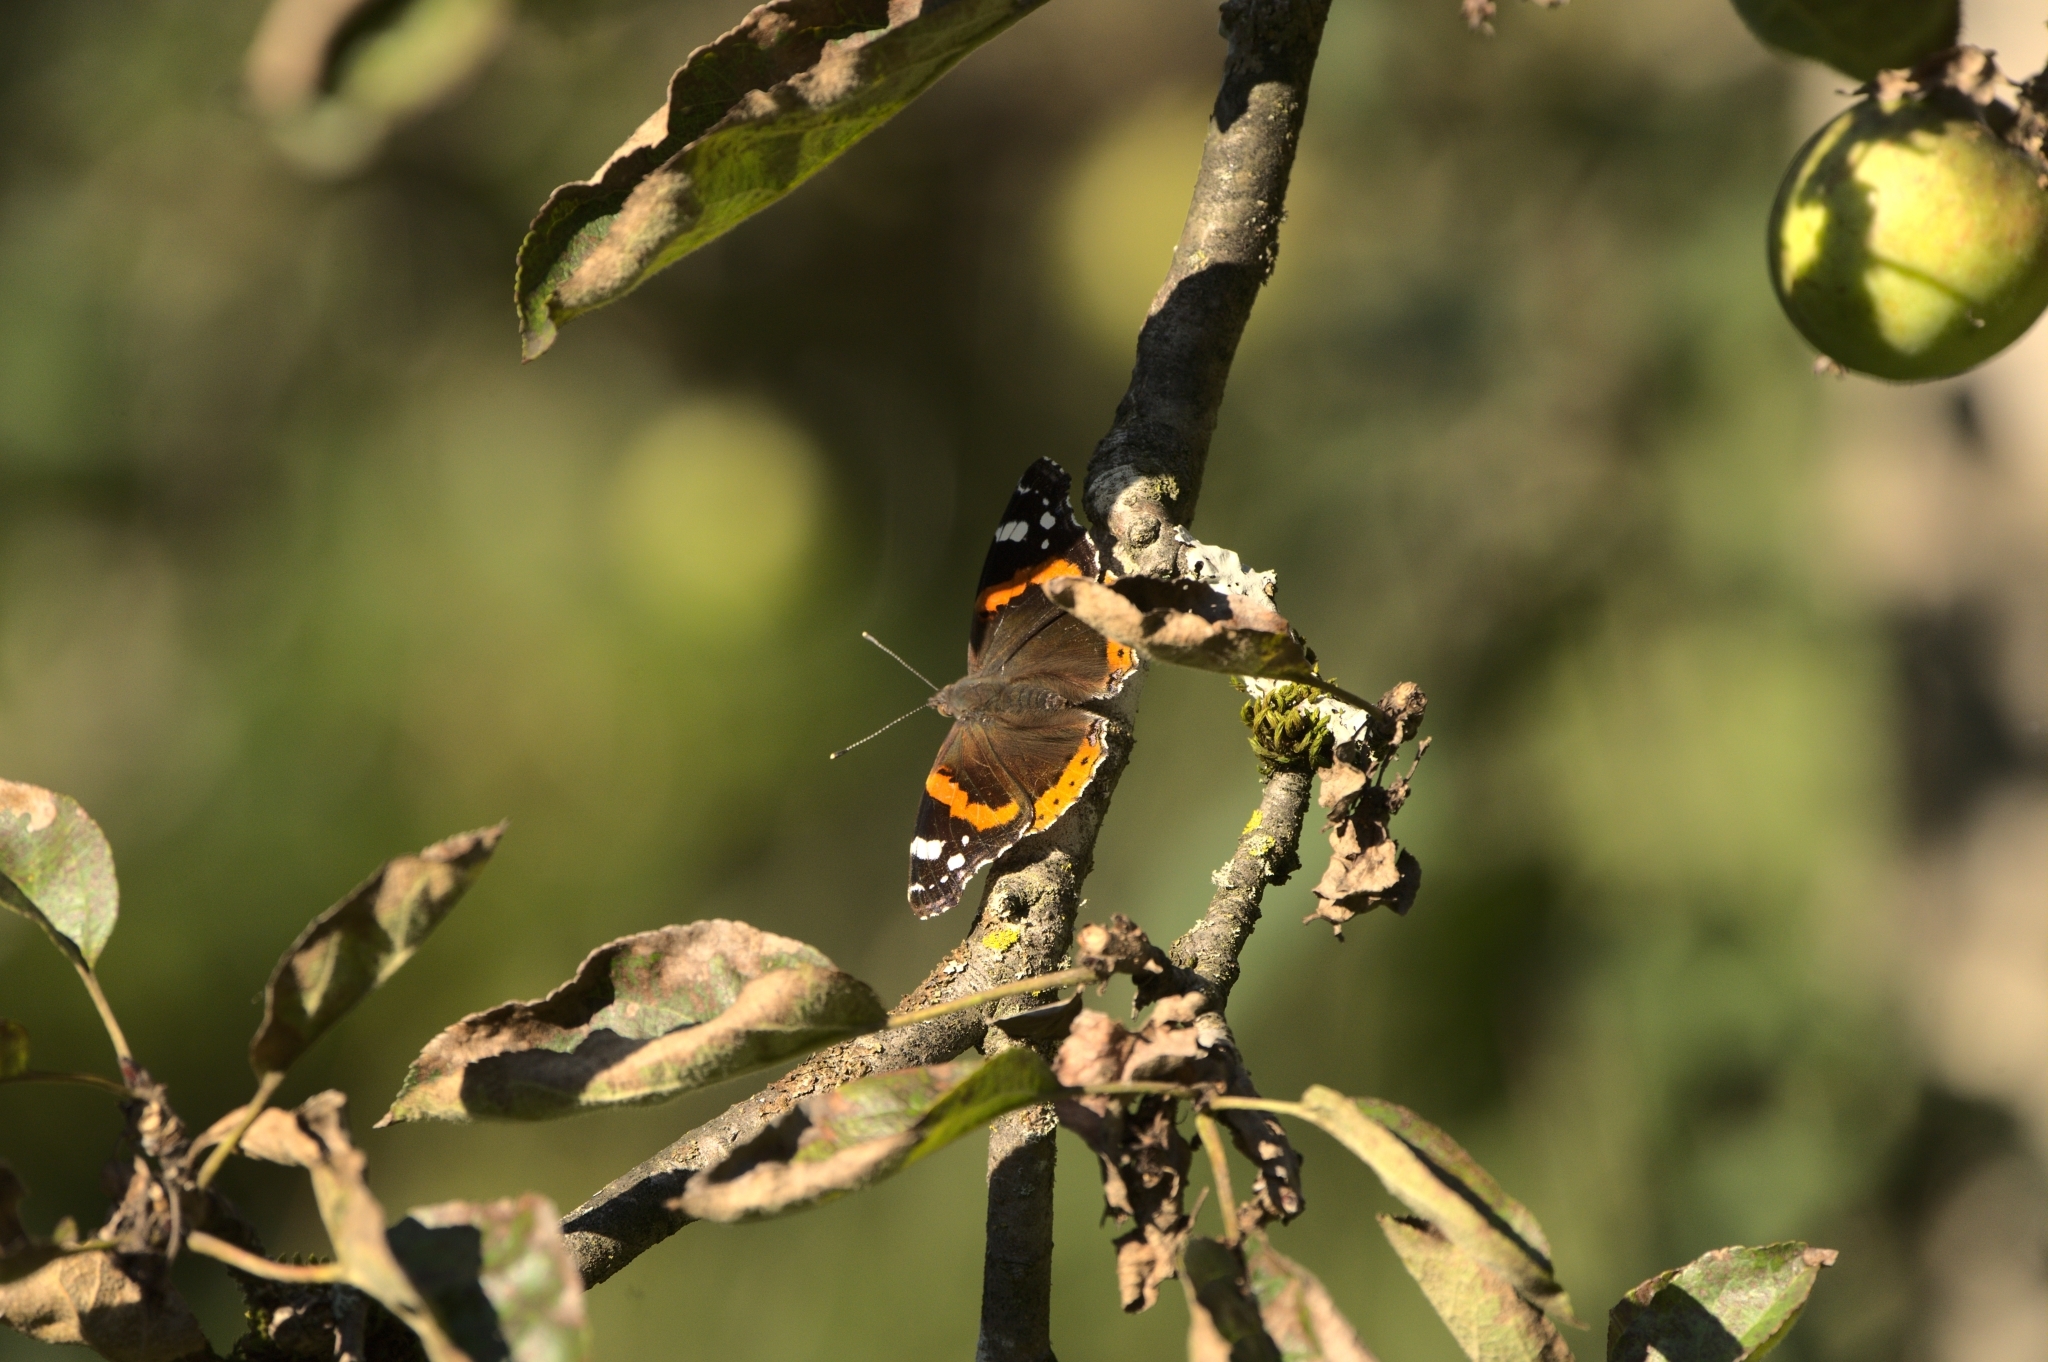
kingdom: Animalia
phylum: Arthropoda
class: Insecta
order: Lepidoptera
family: Nymphalidae
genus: Vanessa
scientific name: Vanessa atalanta
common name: Red admiral
